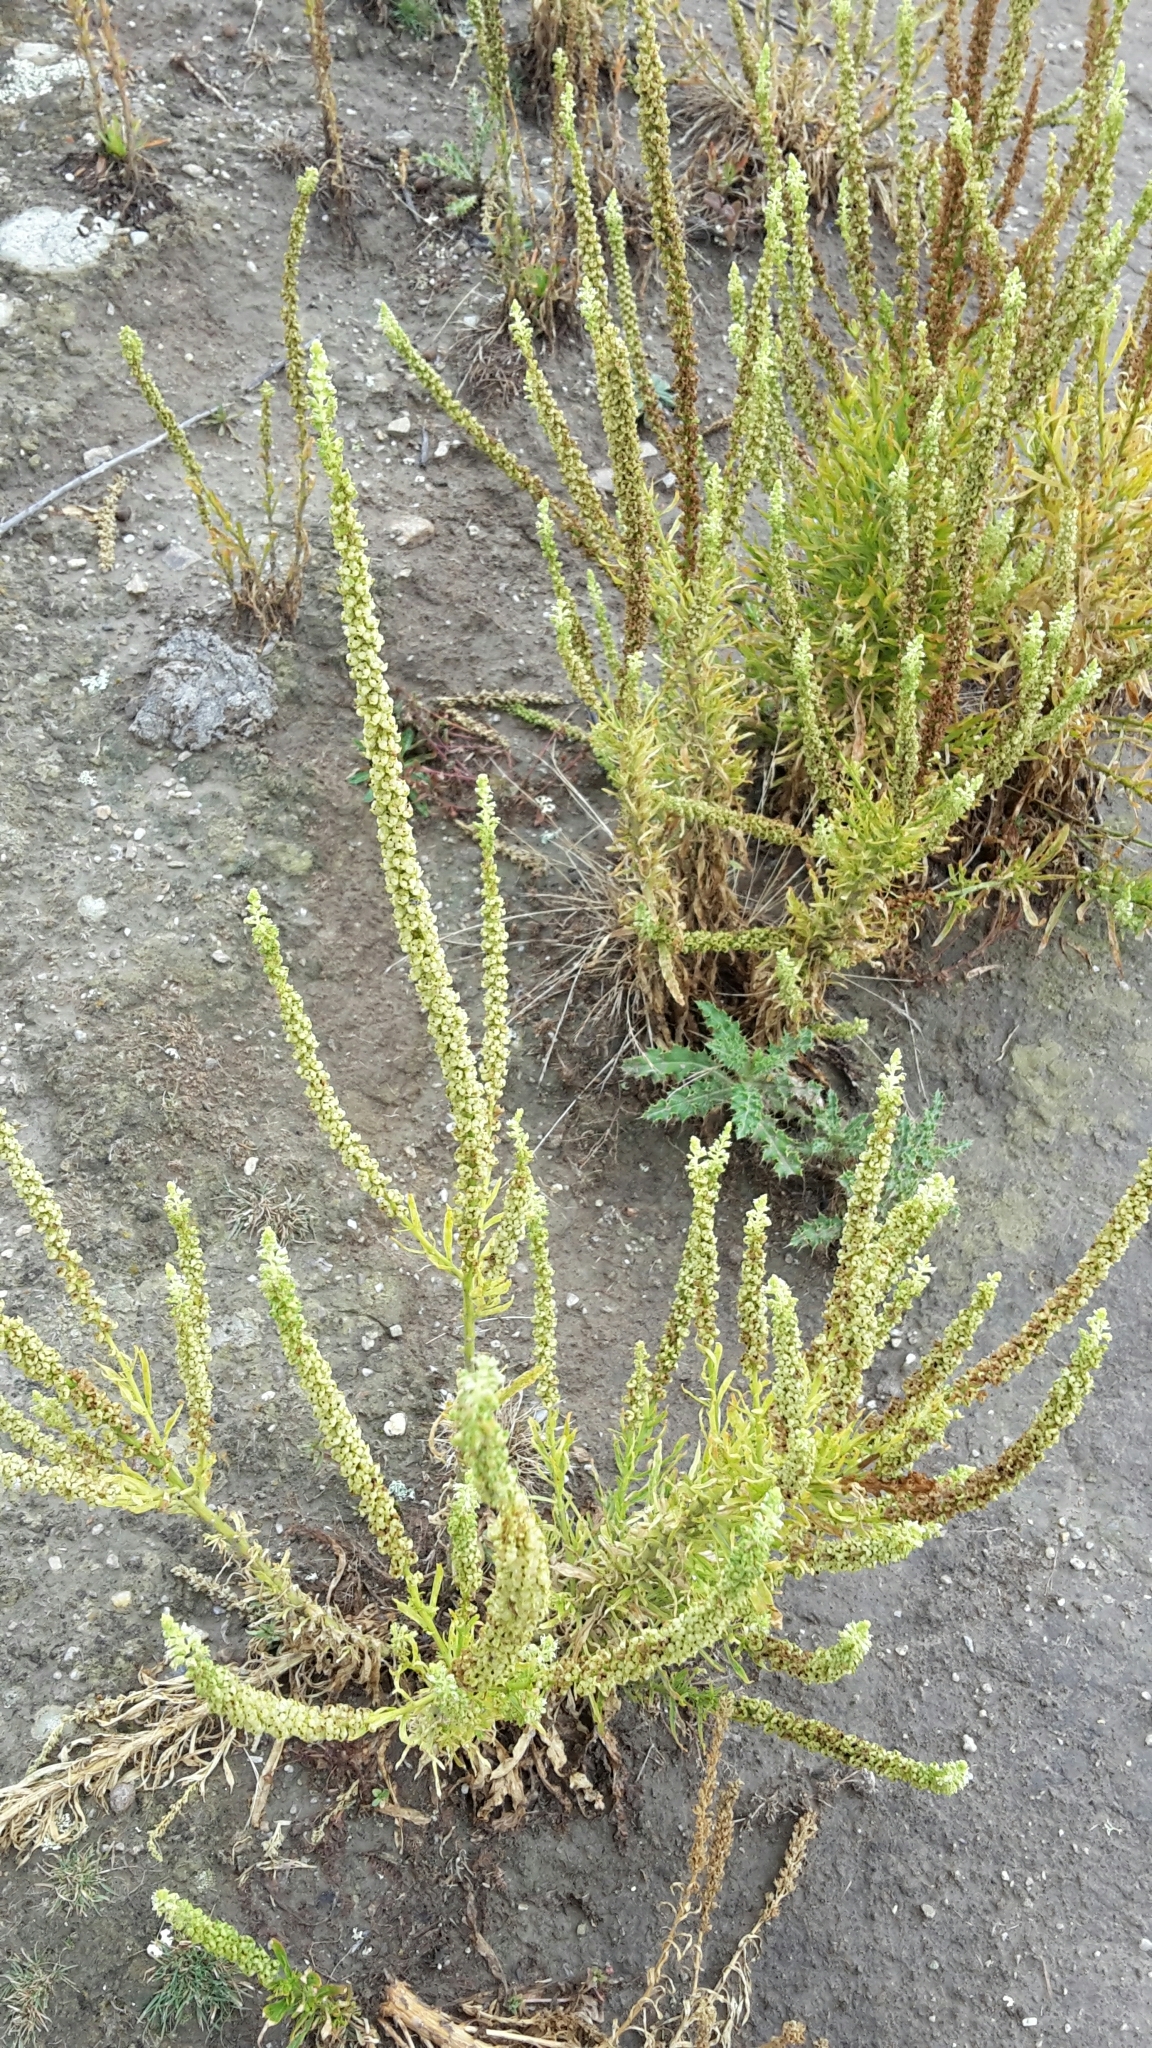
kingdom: Plantae
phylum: Tracheophyta
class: Magnoliopsida
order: Brassicales
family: Resedaceae
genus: Reseda
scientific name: Reseda luteola
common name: Weld
